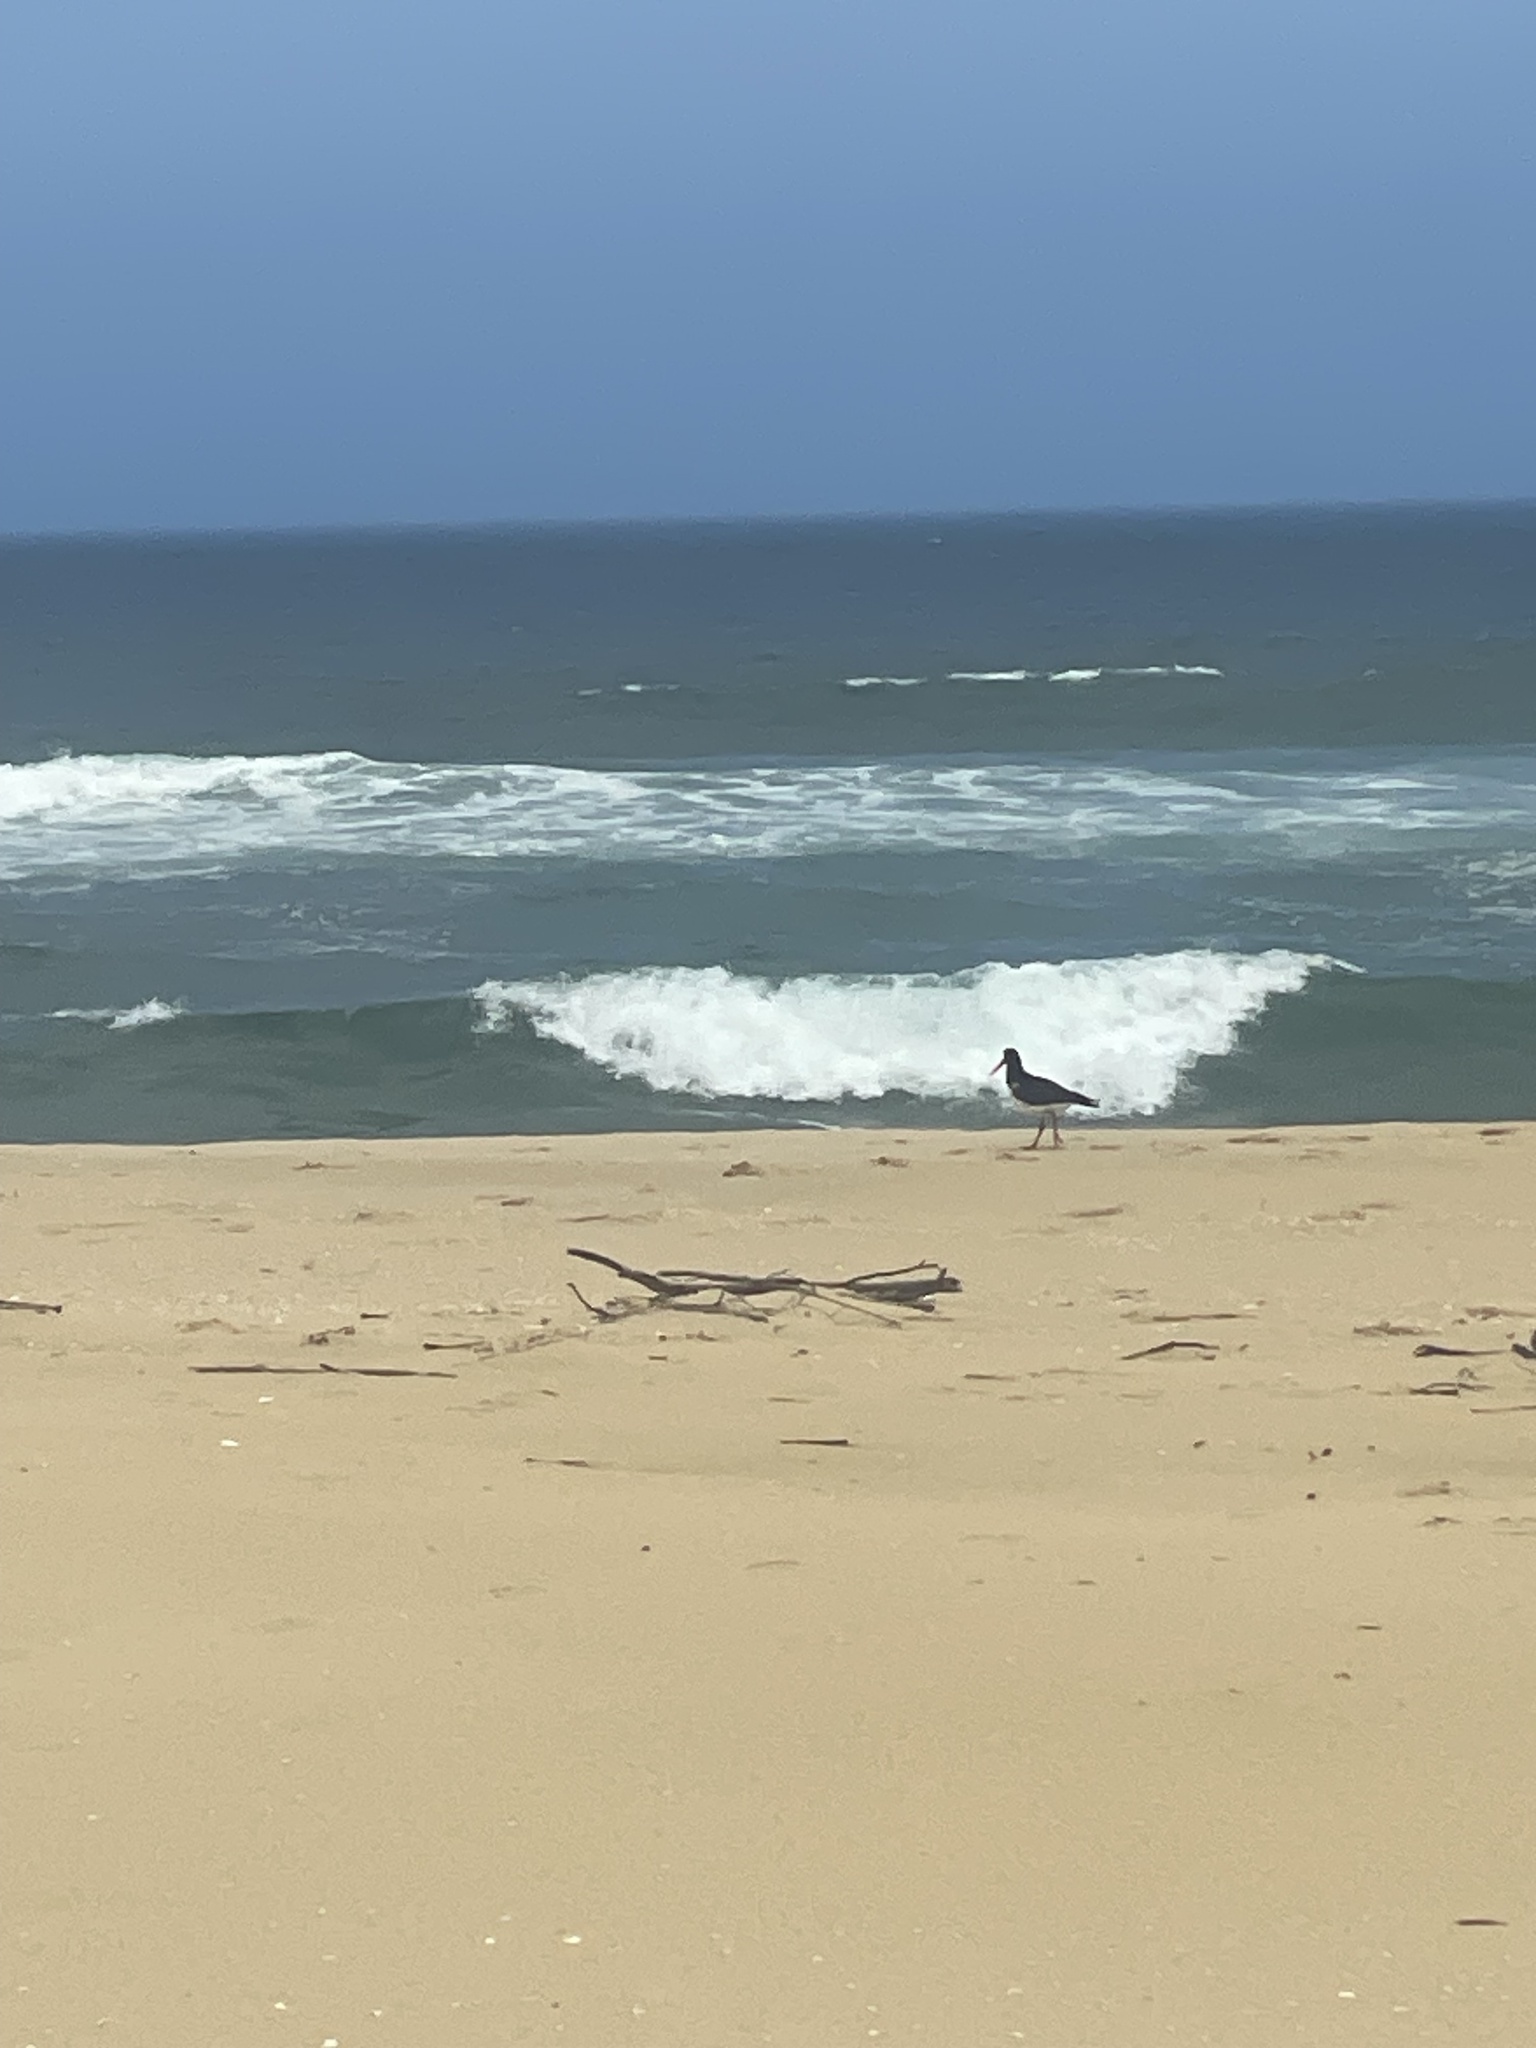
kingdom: Animalia
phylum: Chordata
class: Aves
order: Charadriiformes
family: Haematopodidae
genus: Haematopus
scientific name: Haematopus longirostris
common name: Pied oystercatcher
